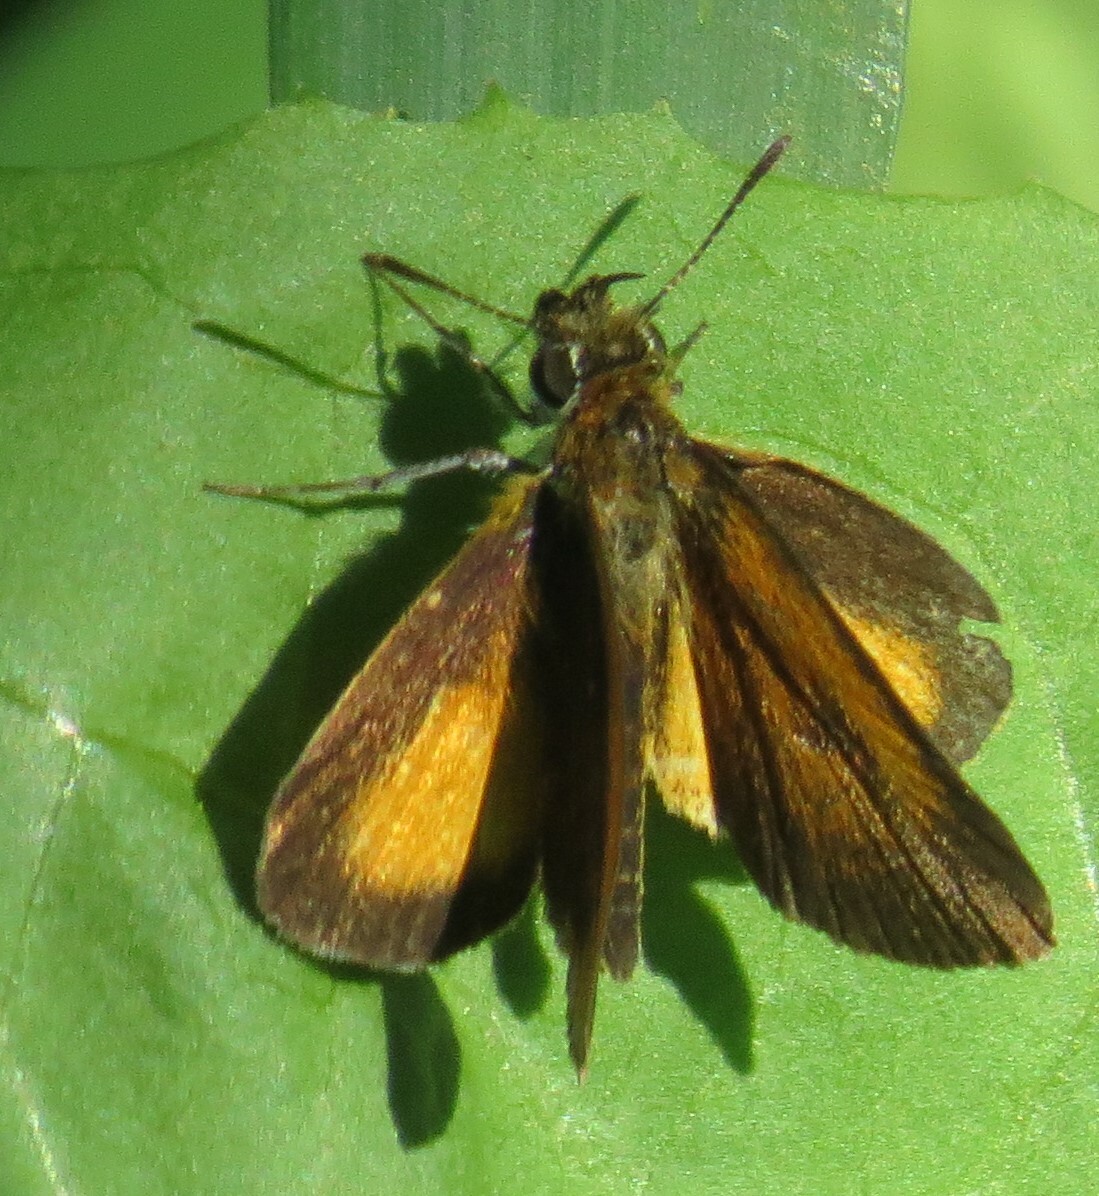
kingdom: Animalia
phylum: Arthropoda
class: Insecta
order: Lepidoptera
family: Hesperiidae
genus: Ancyloxypha
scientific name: Ancyloxypha numitor
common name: Least skipper
